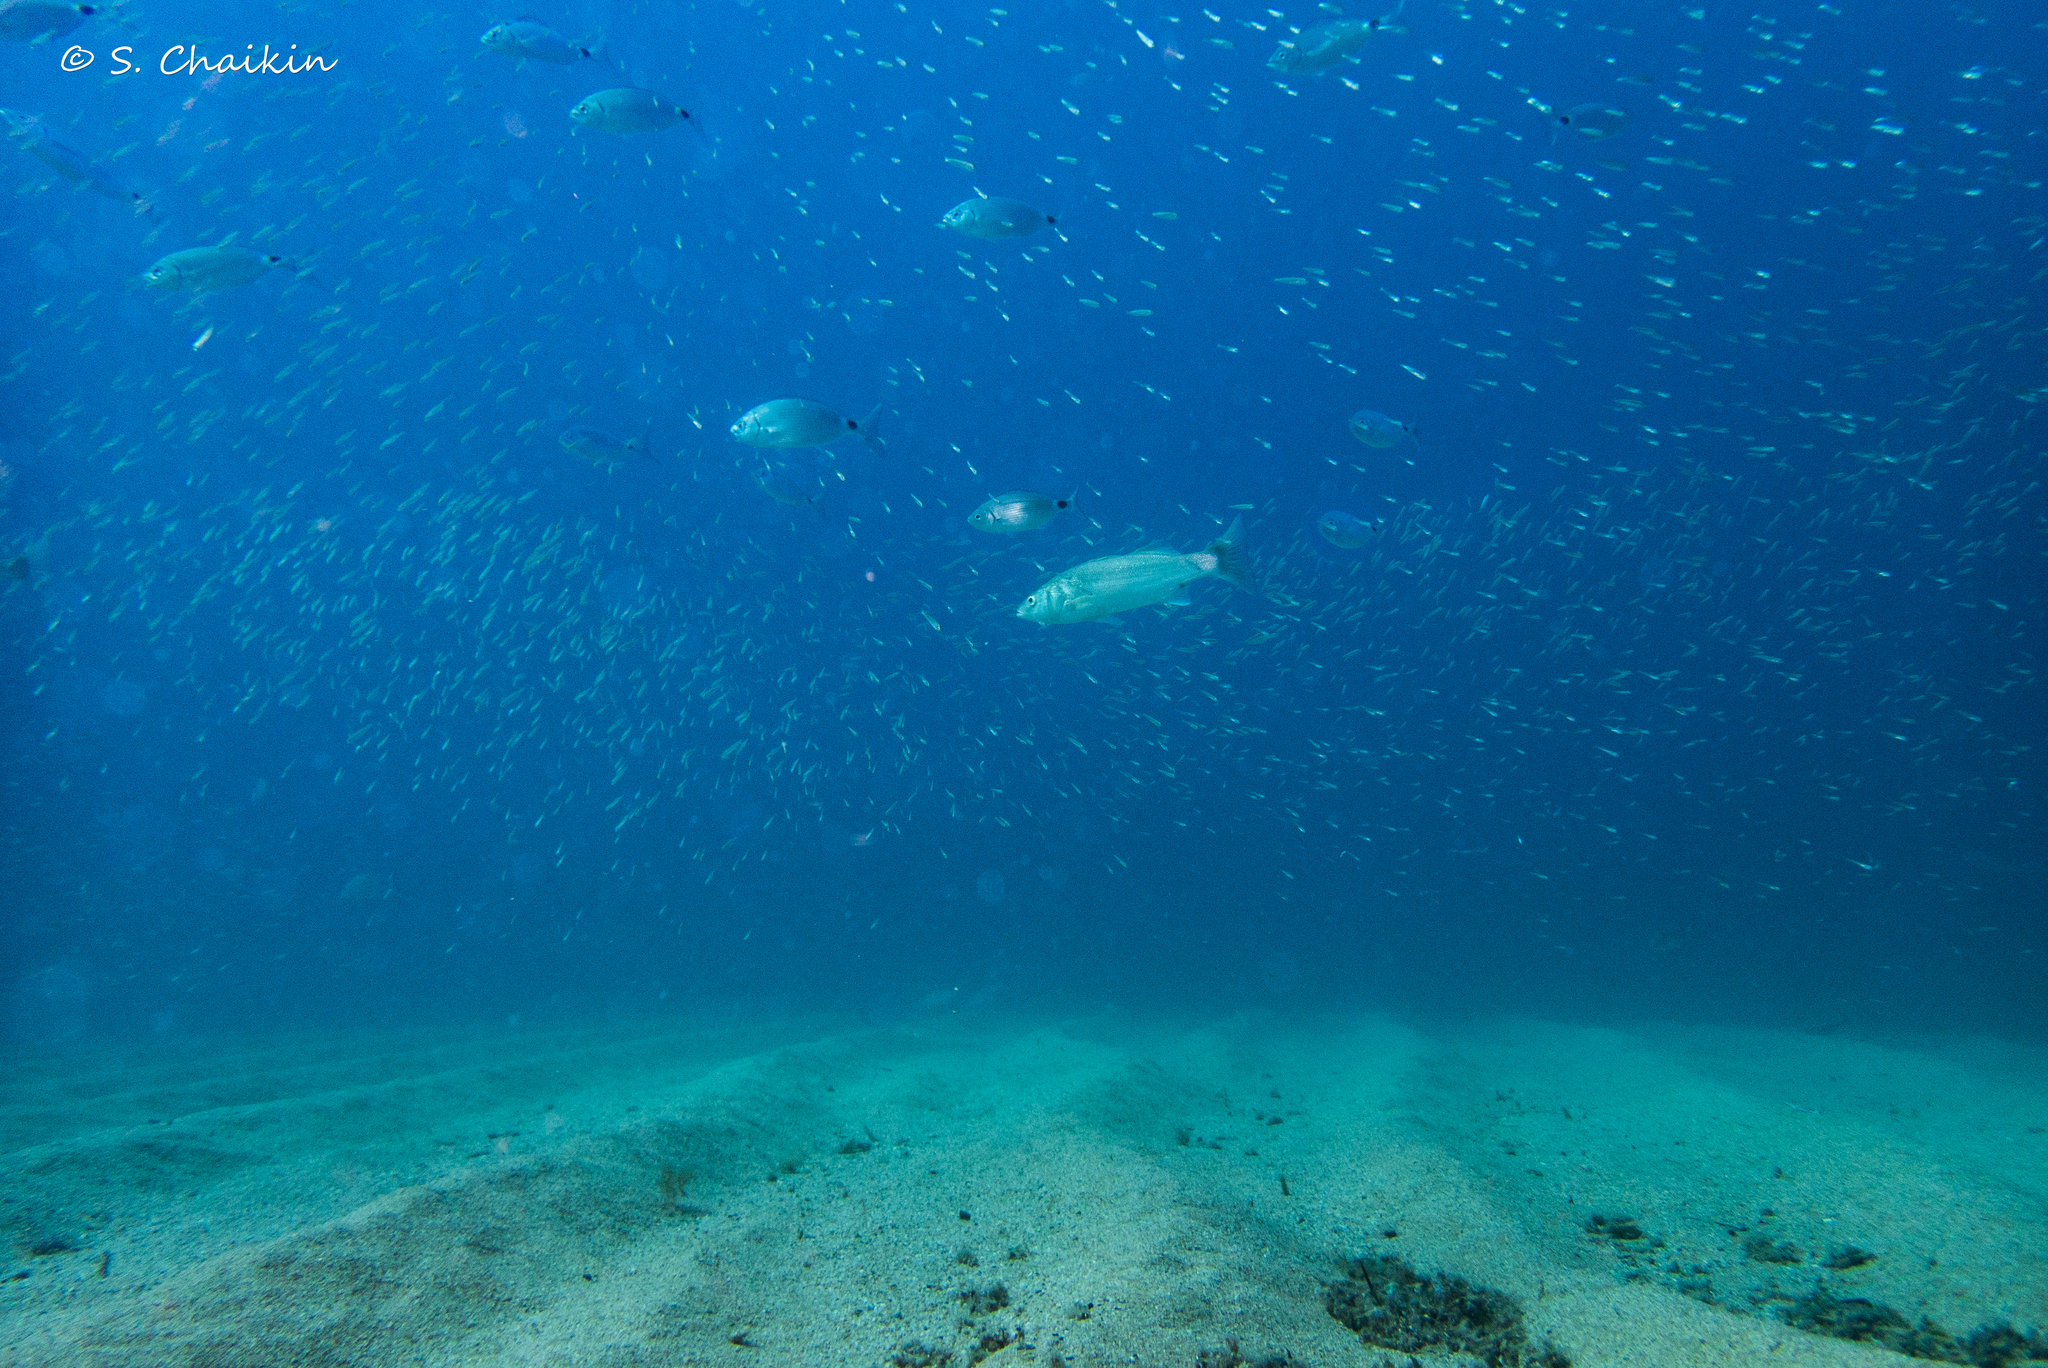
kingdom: Animalia
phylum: Chordata
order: Perciformes
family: Sparidae
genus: Oblada
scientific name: Oblada melanura
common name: Saddled seabream
